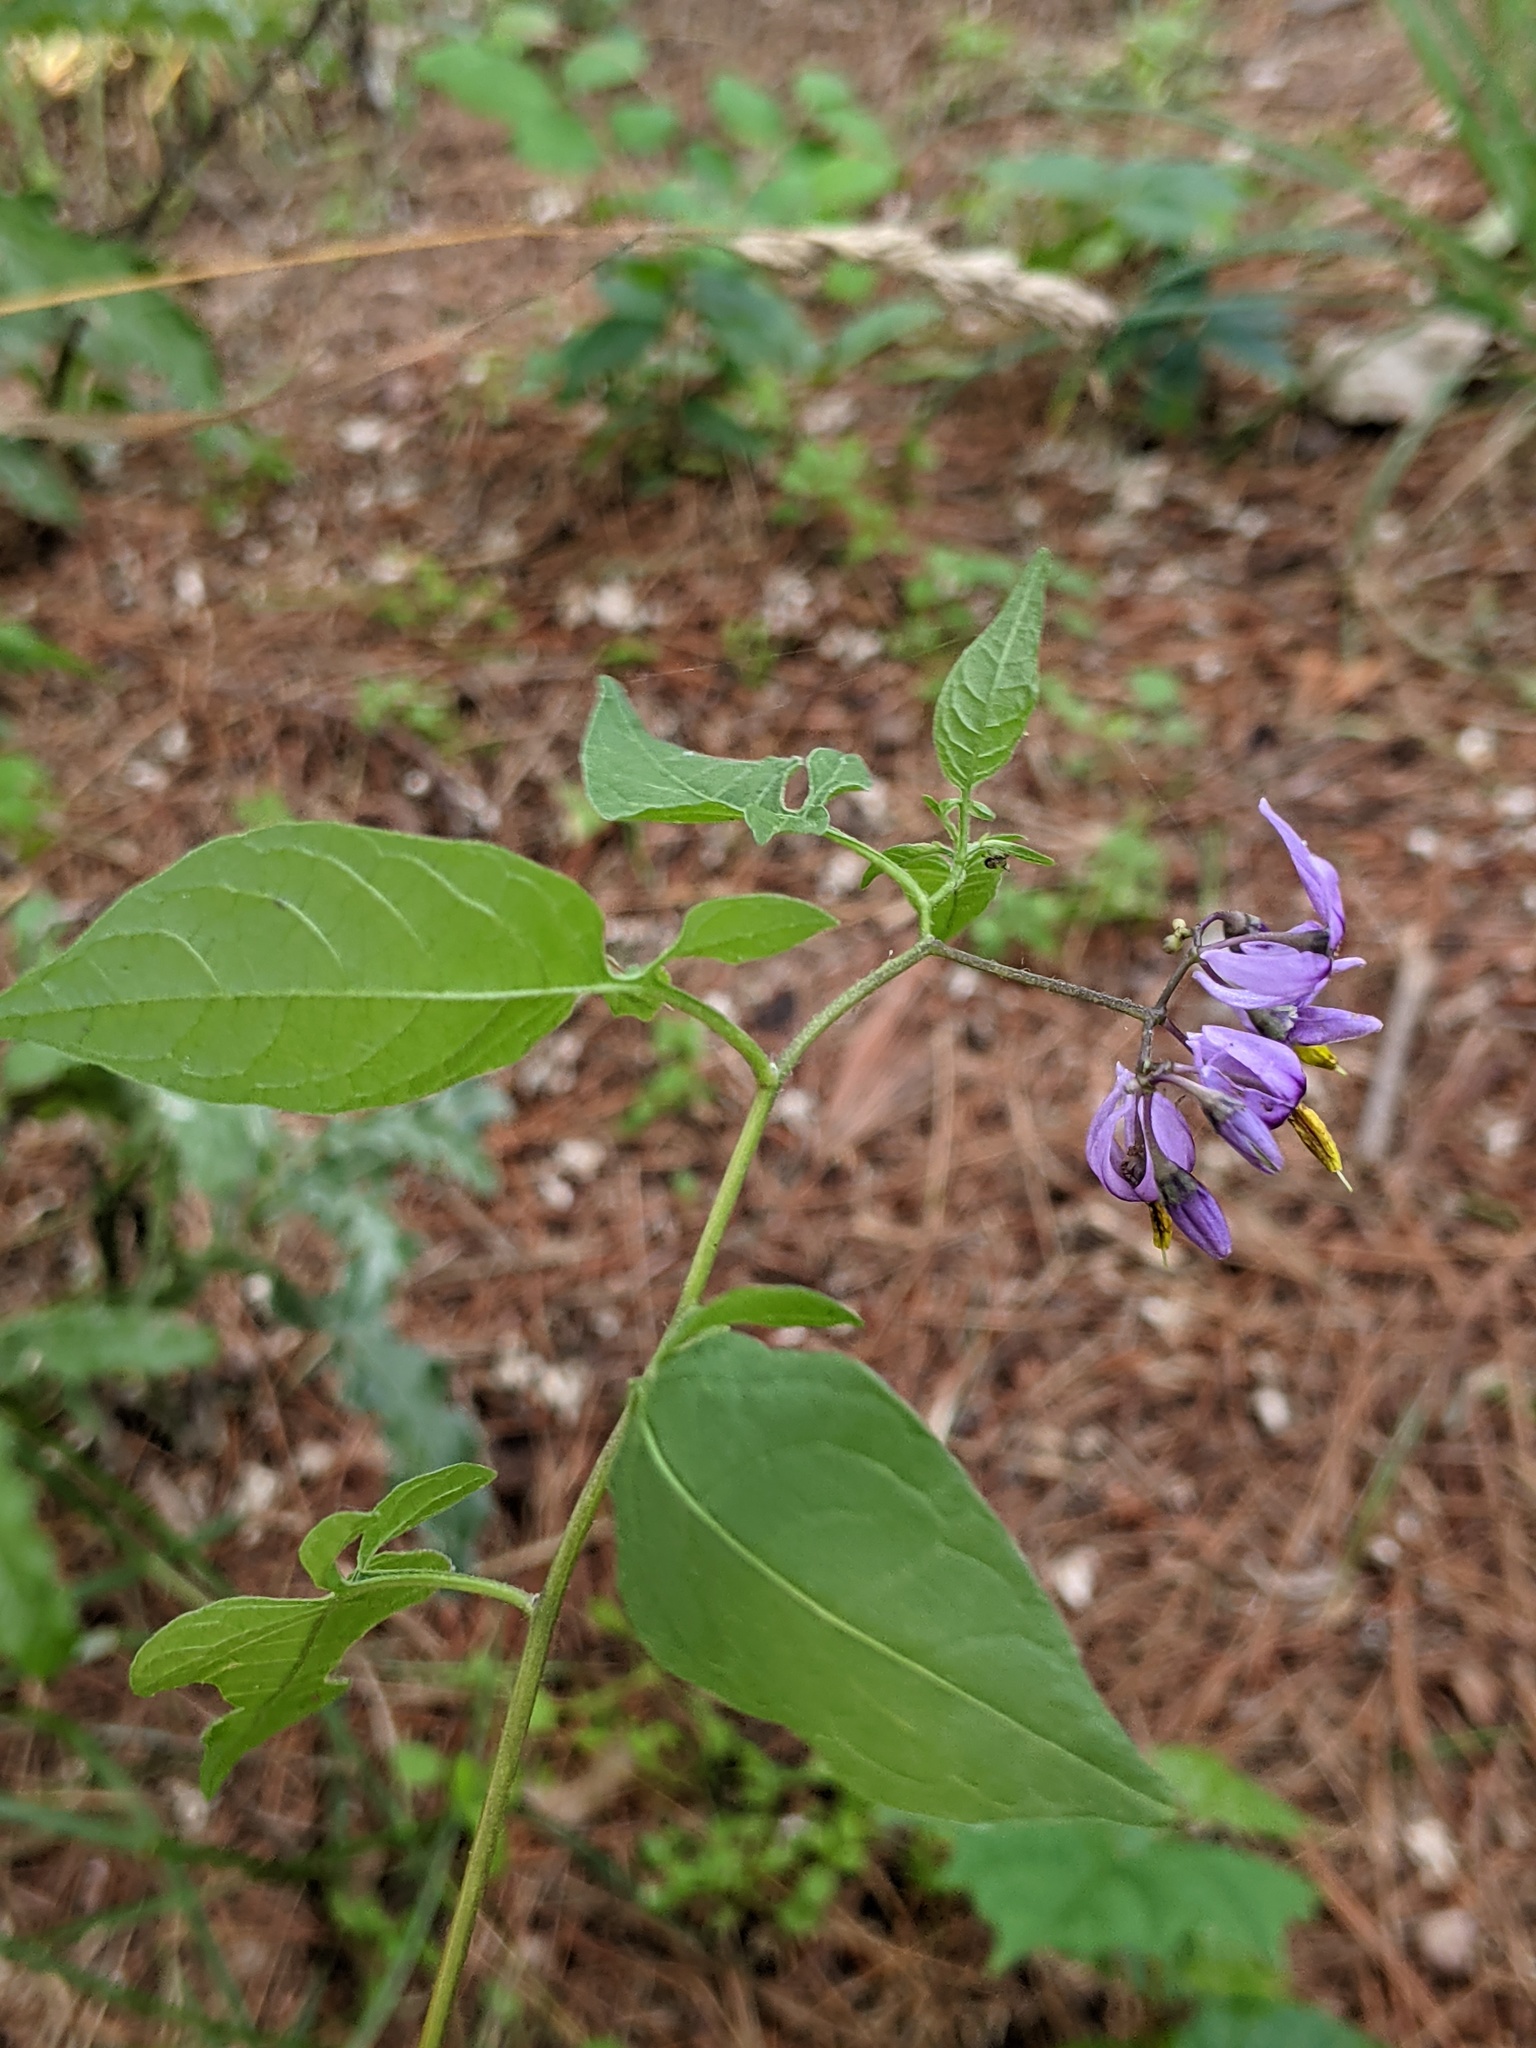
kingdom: Plantae
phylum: Tracheophyta
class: Magnoliopsida
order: Solanales
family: Solanaceae
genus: Solanum
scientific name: Solanum dulcamara
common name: Climbing nightshade
